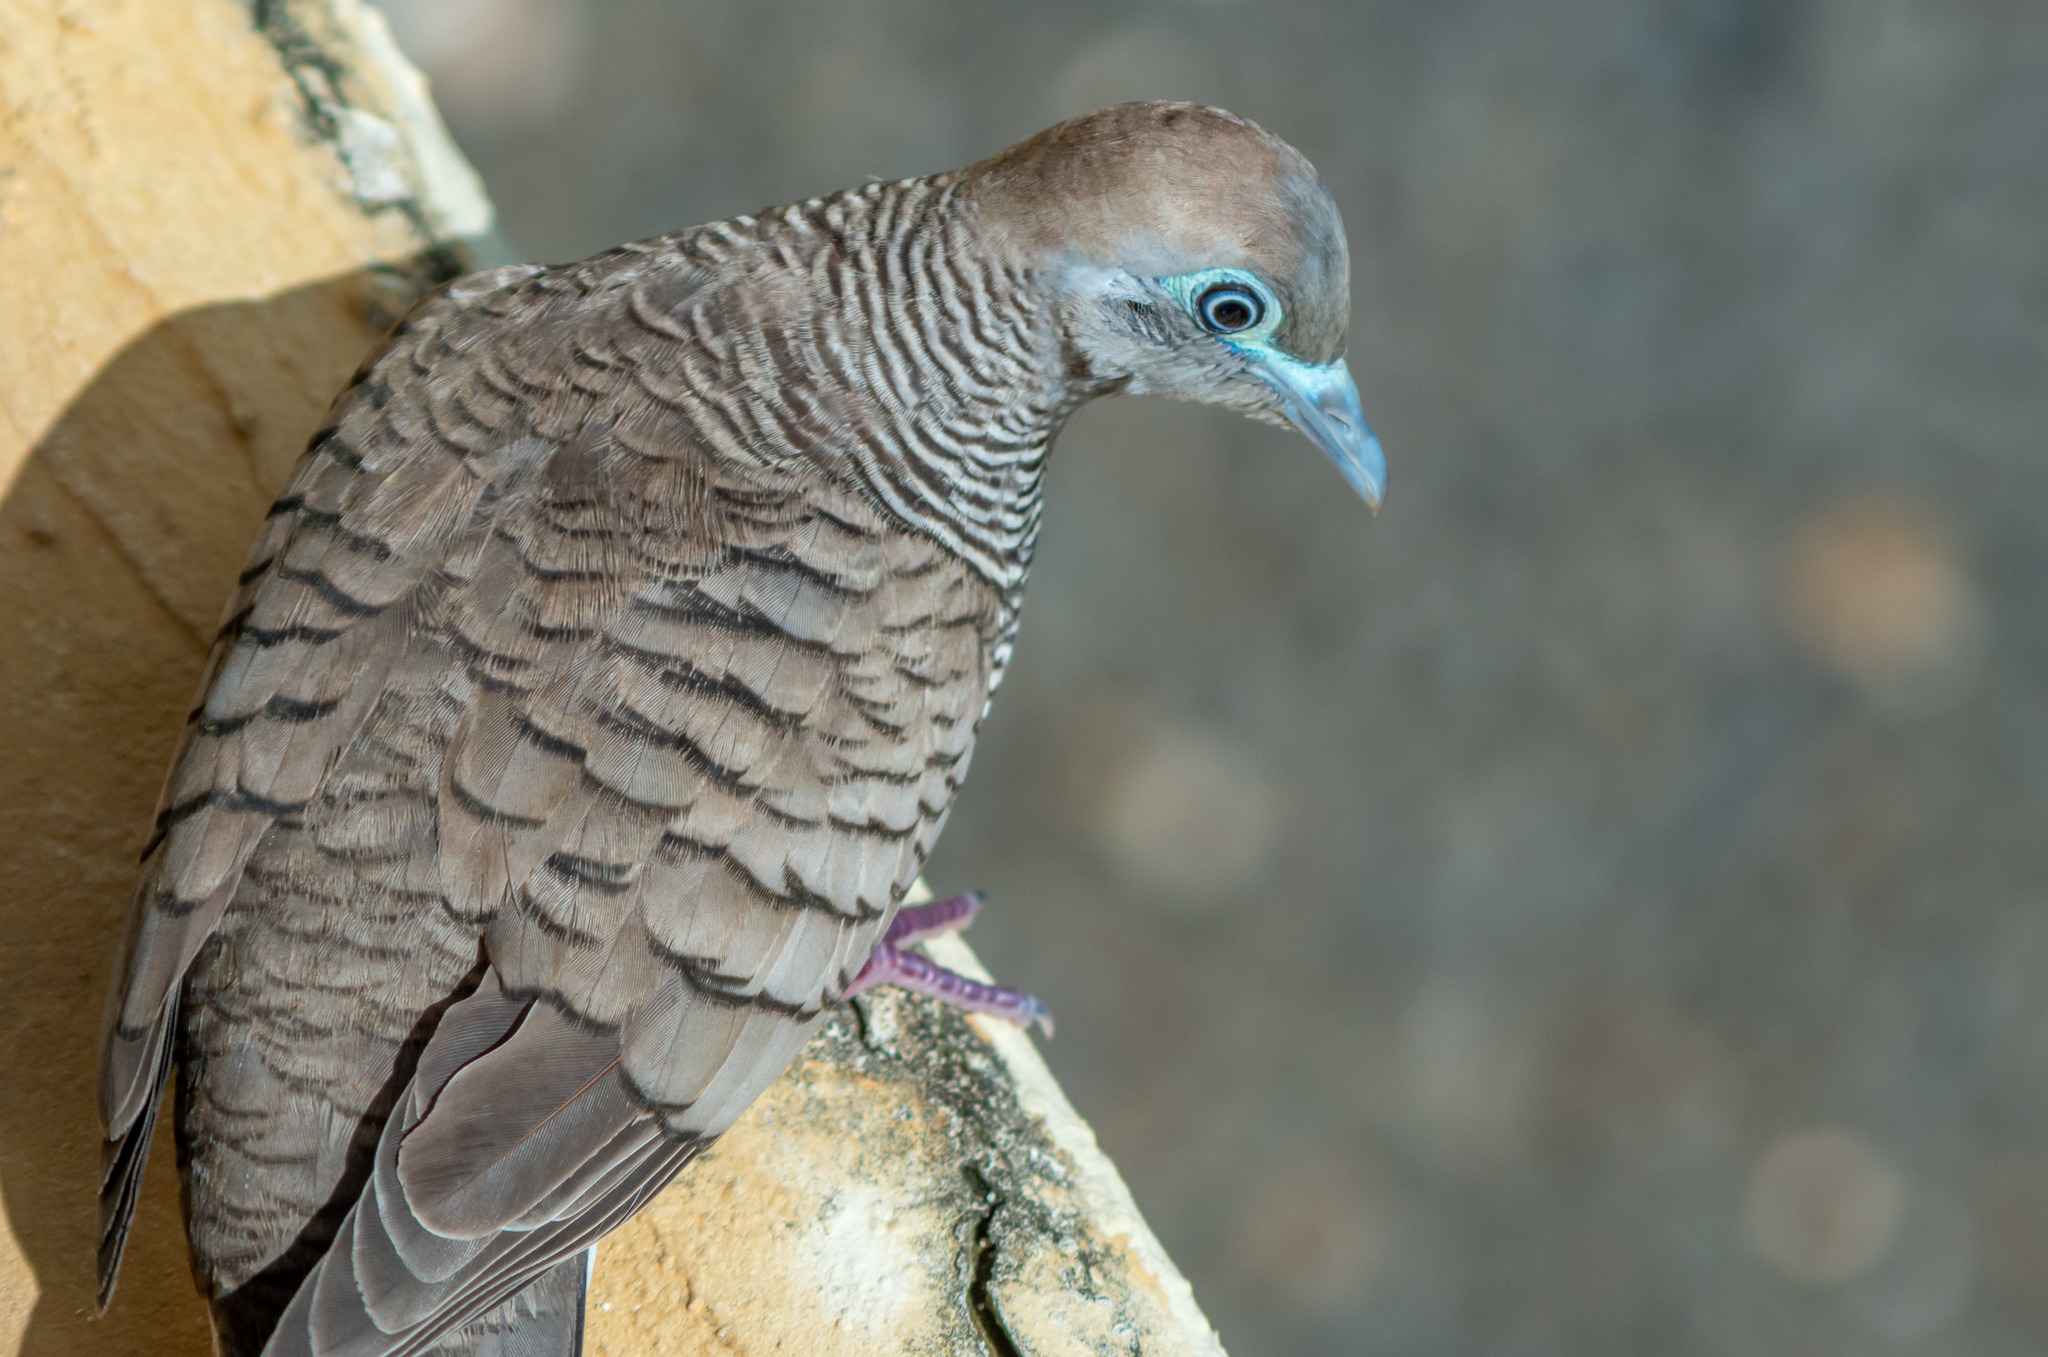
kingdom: Animalia
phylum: Chordata
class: Aves
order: Columbiformes
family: Columbidae
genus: Geopelia
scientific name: Geopelia striata
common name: Zebra dove
